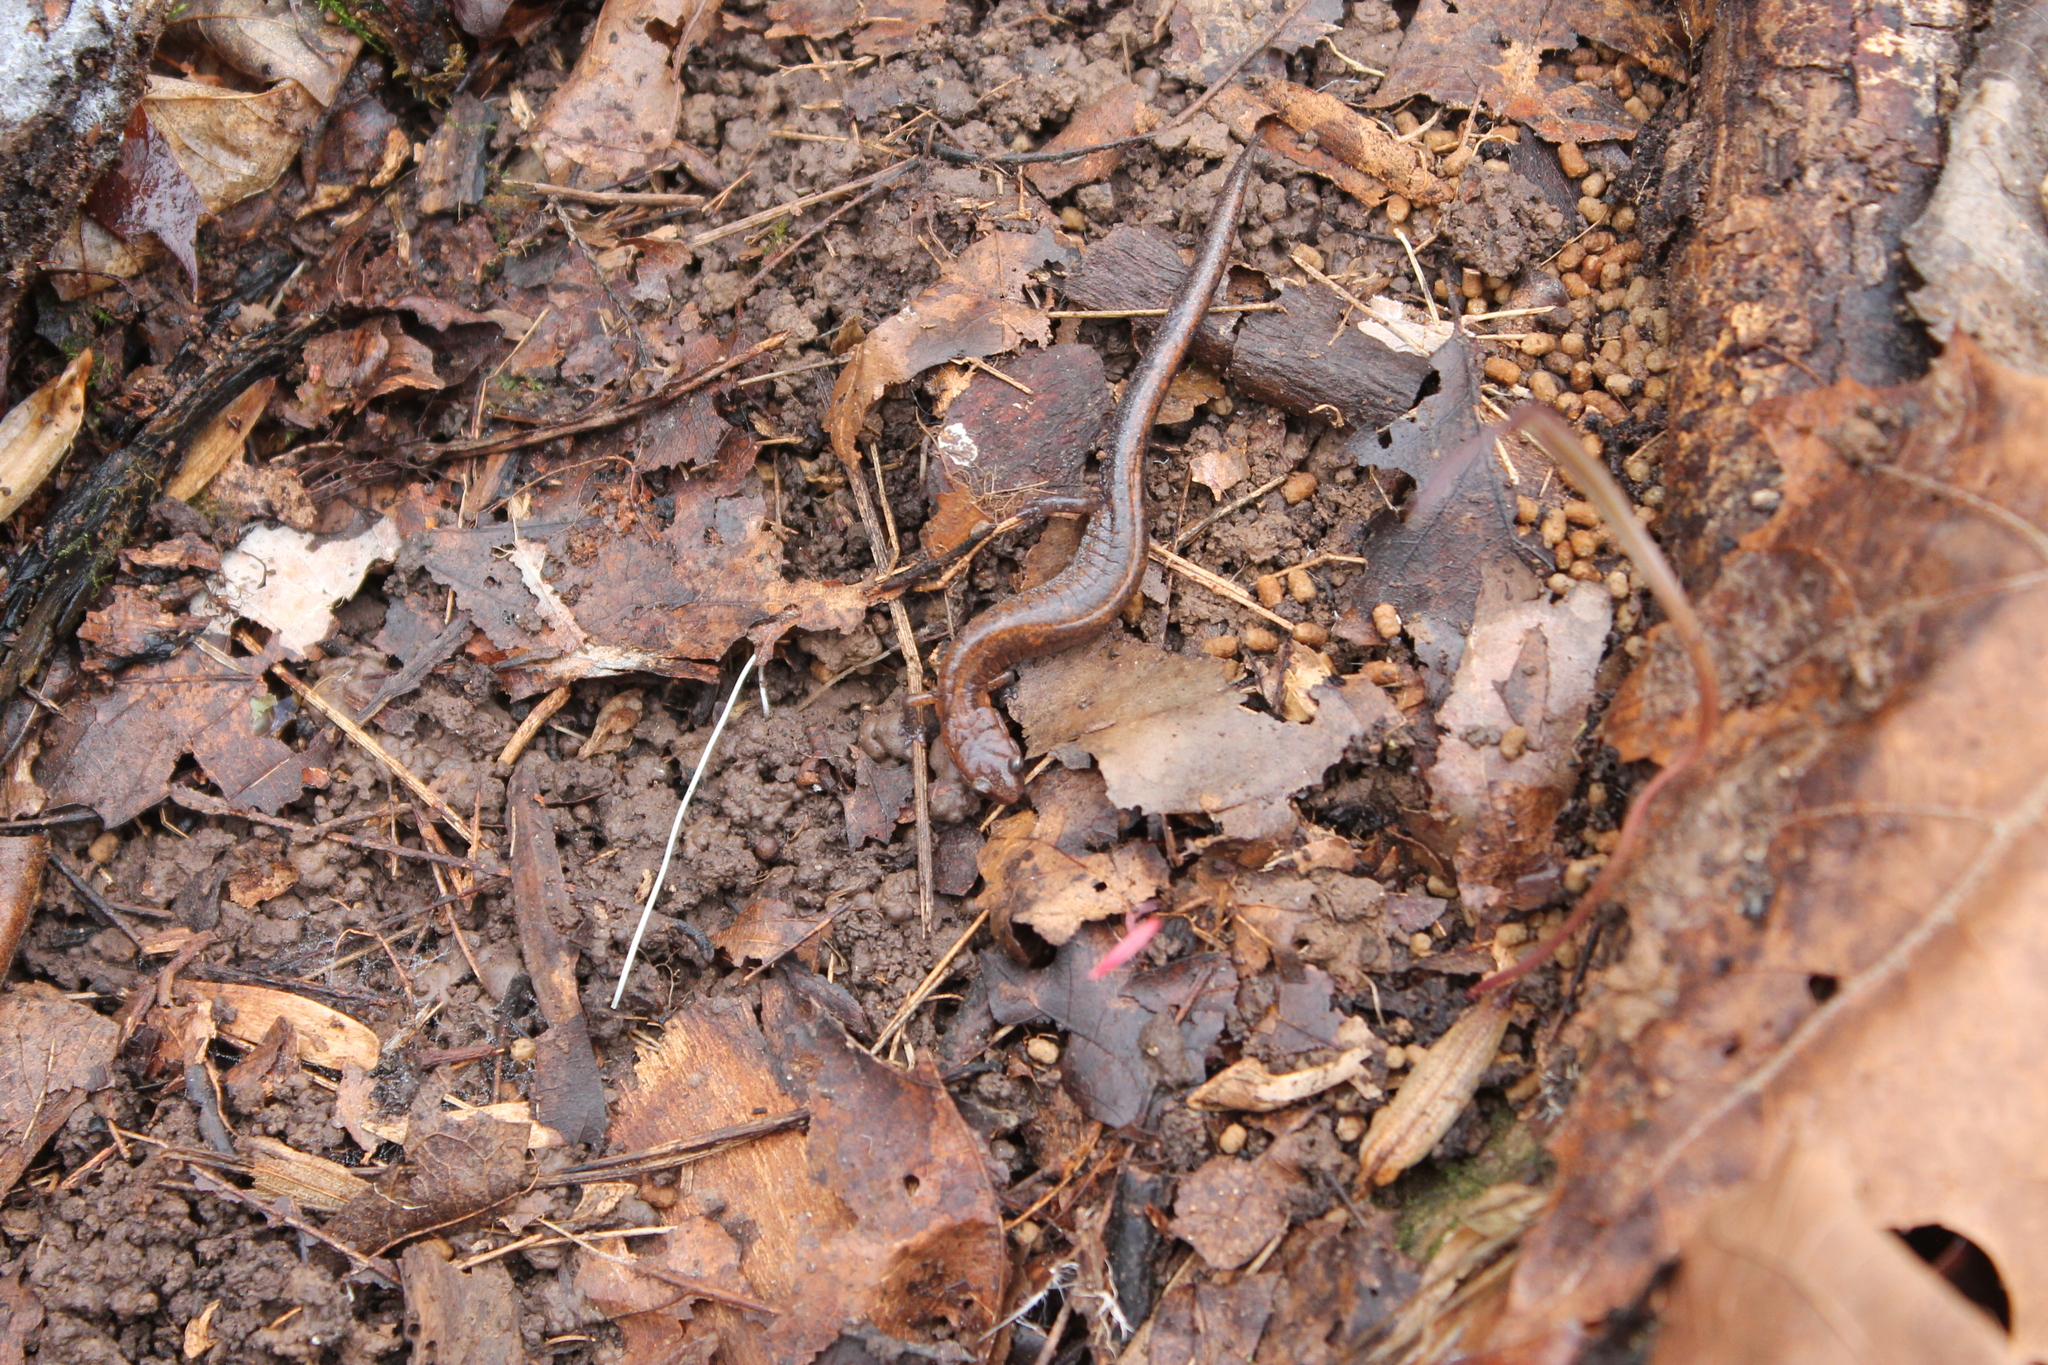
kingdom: Animalia
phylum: Chordata
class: Amphibia
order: Caudata
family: Plethodontidae
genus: Plethodon
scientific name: Plethodon dorsalis
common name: Northern zigzag salamander
